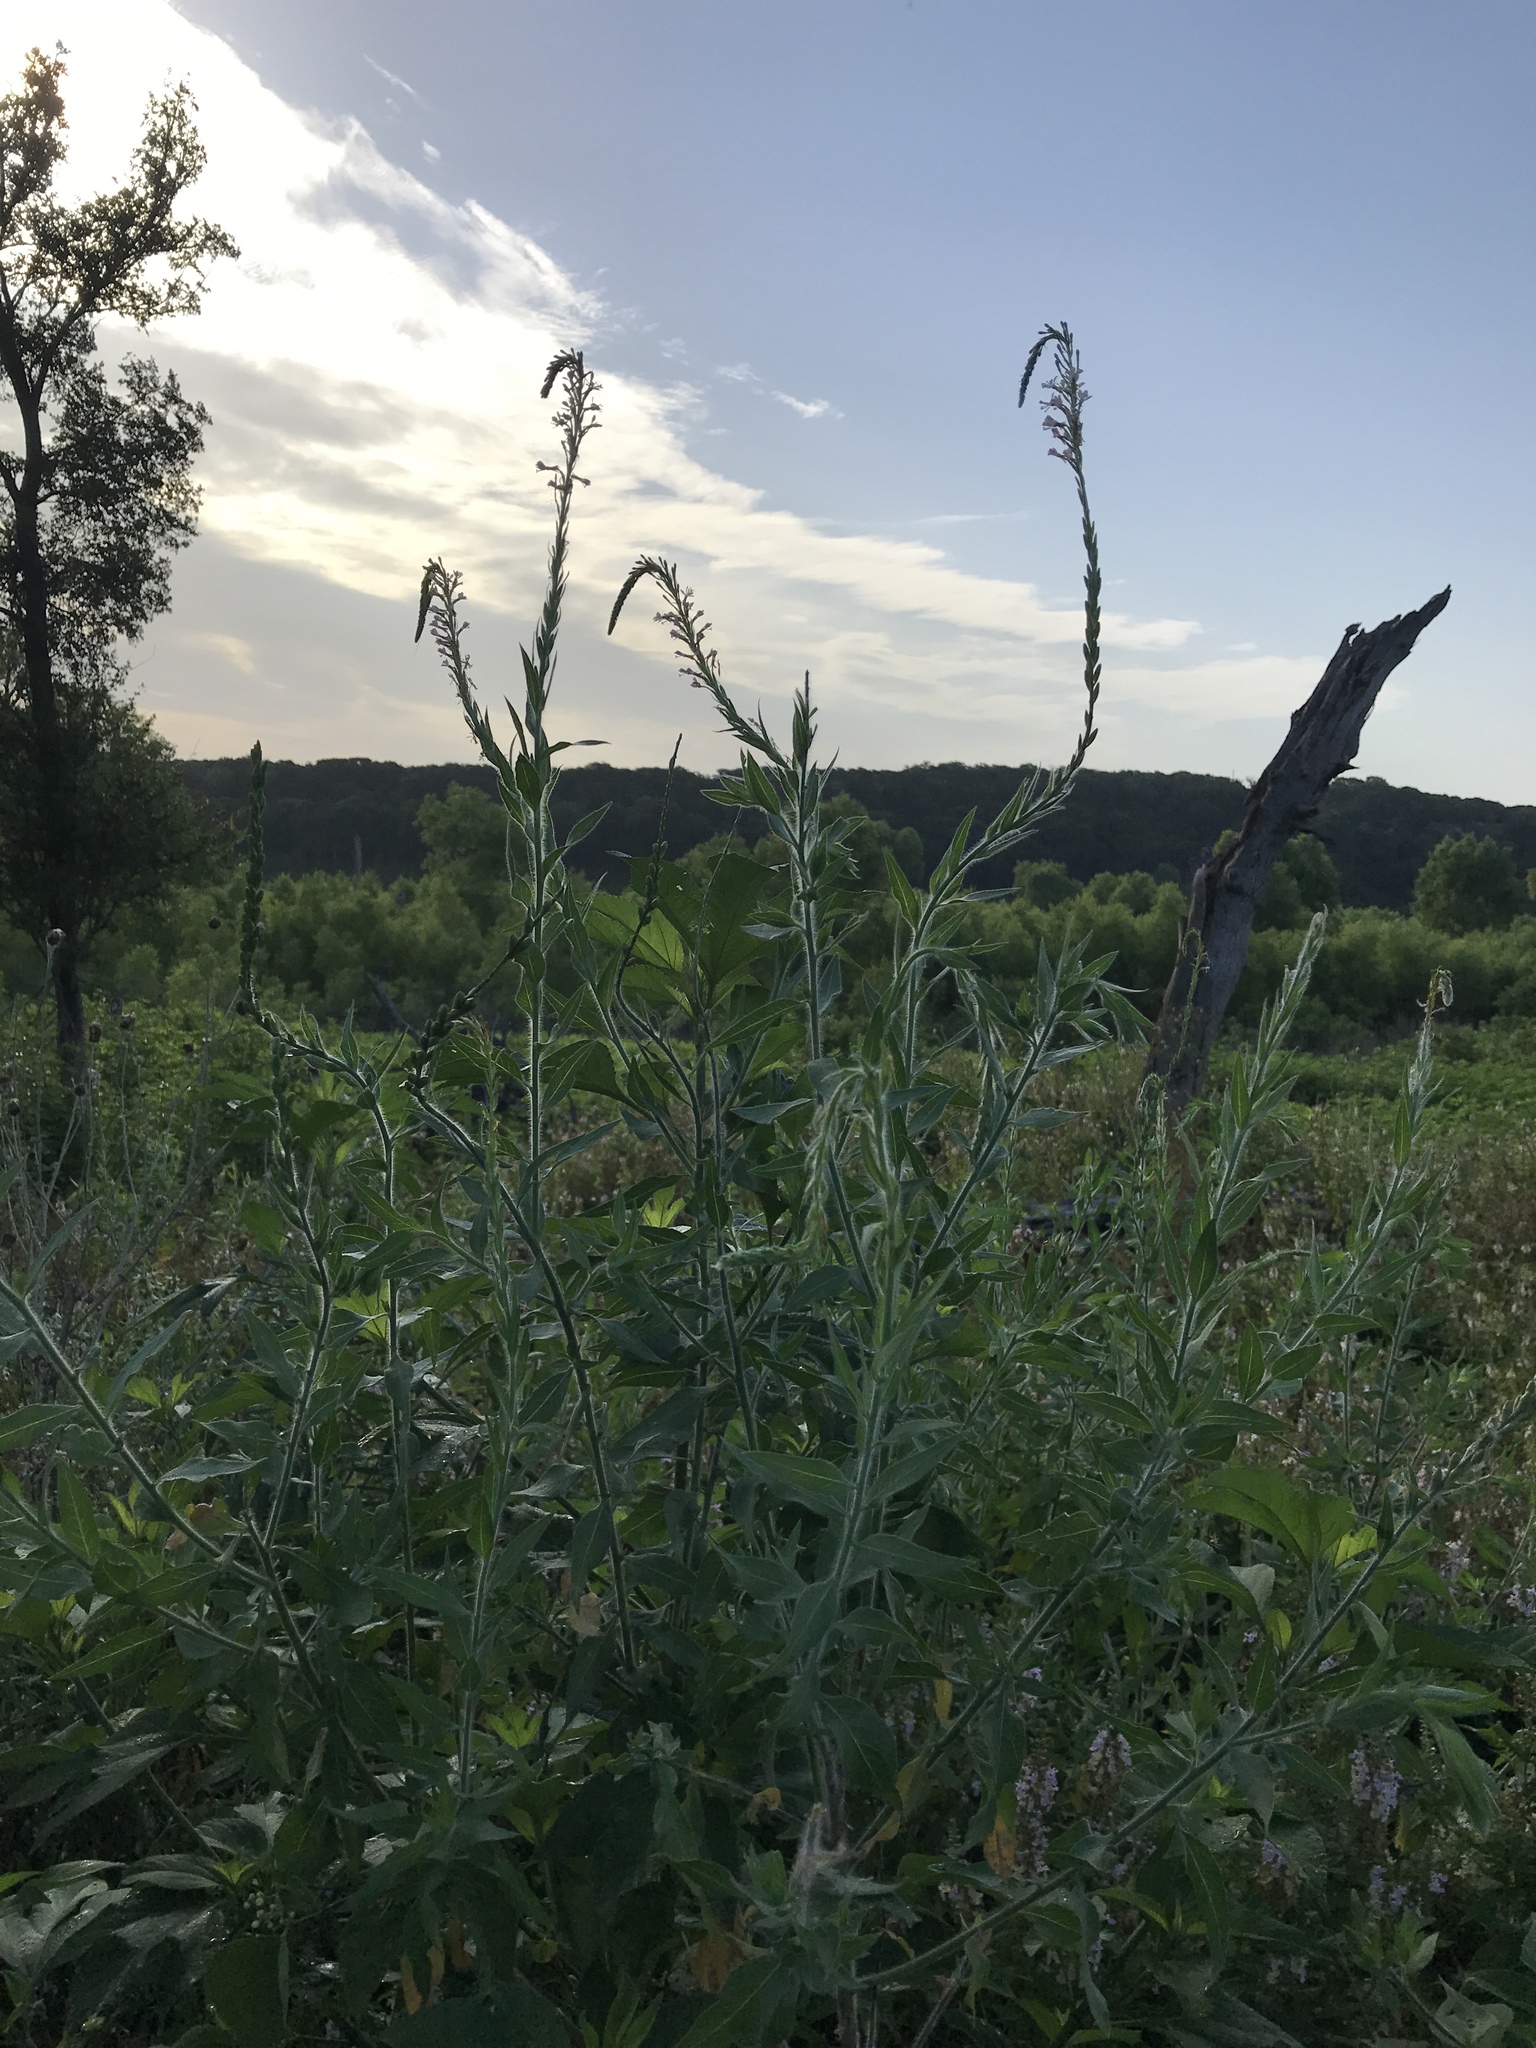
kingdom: Plantae
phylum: Tracheophyta
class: Magnoliopsida
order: Myrtales
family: Onagraceae
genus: Oenothera
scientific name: Oenothera curtiflora
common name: Velvetweed
